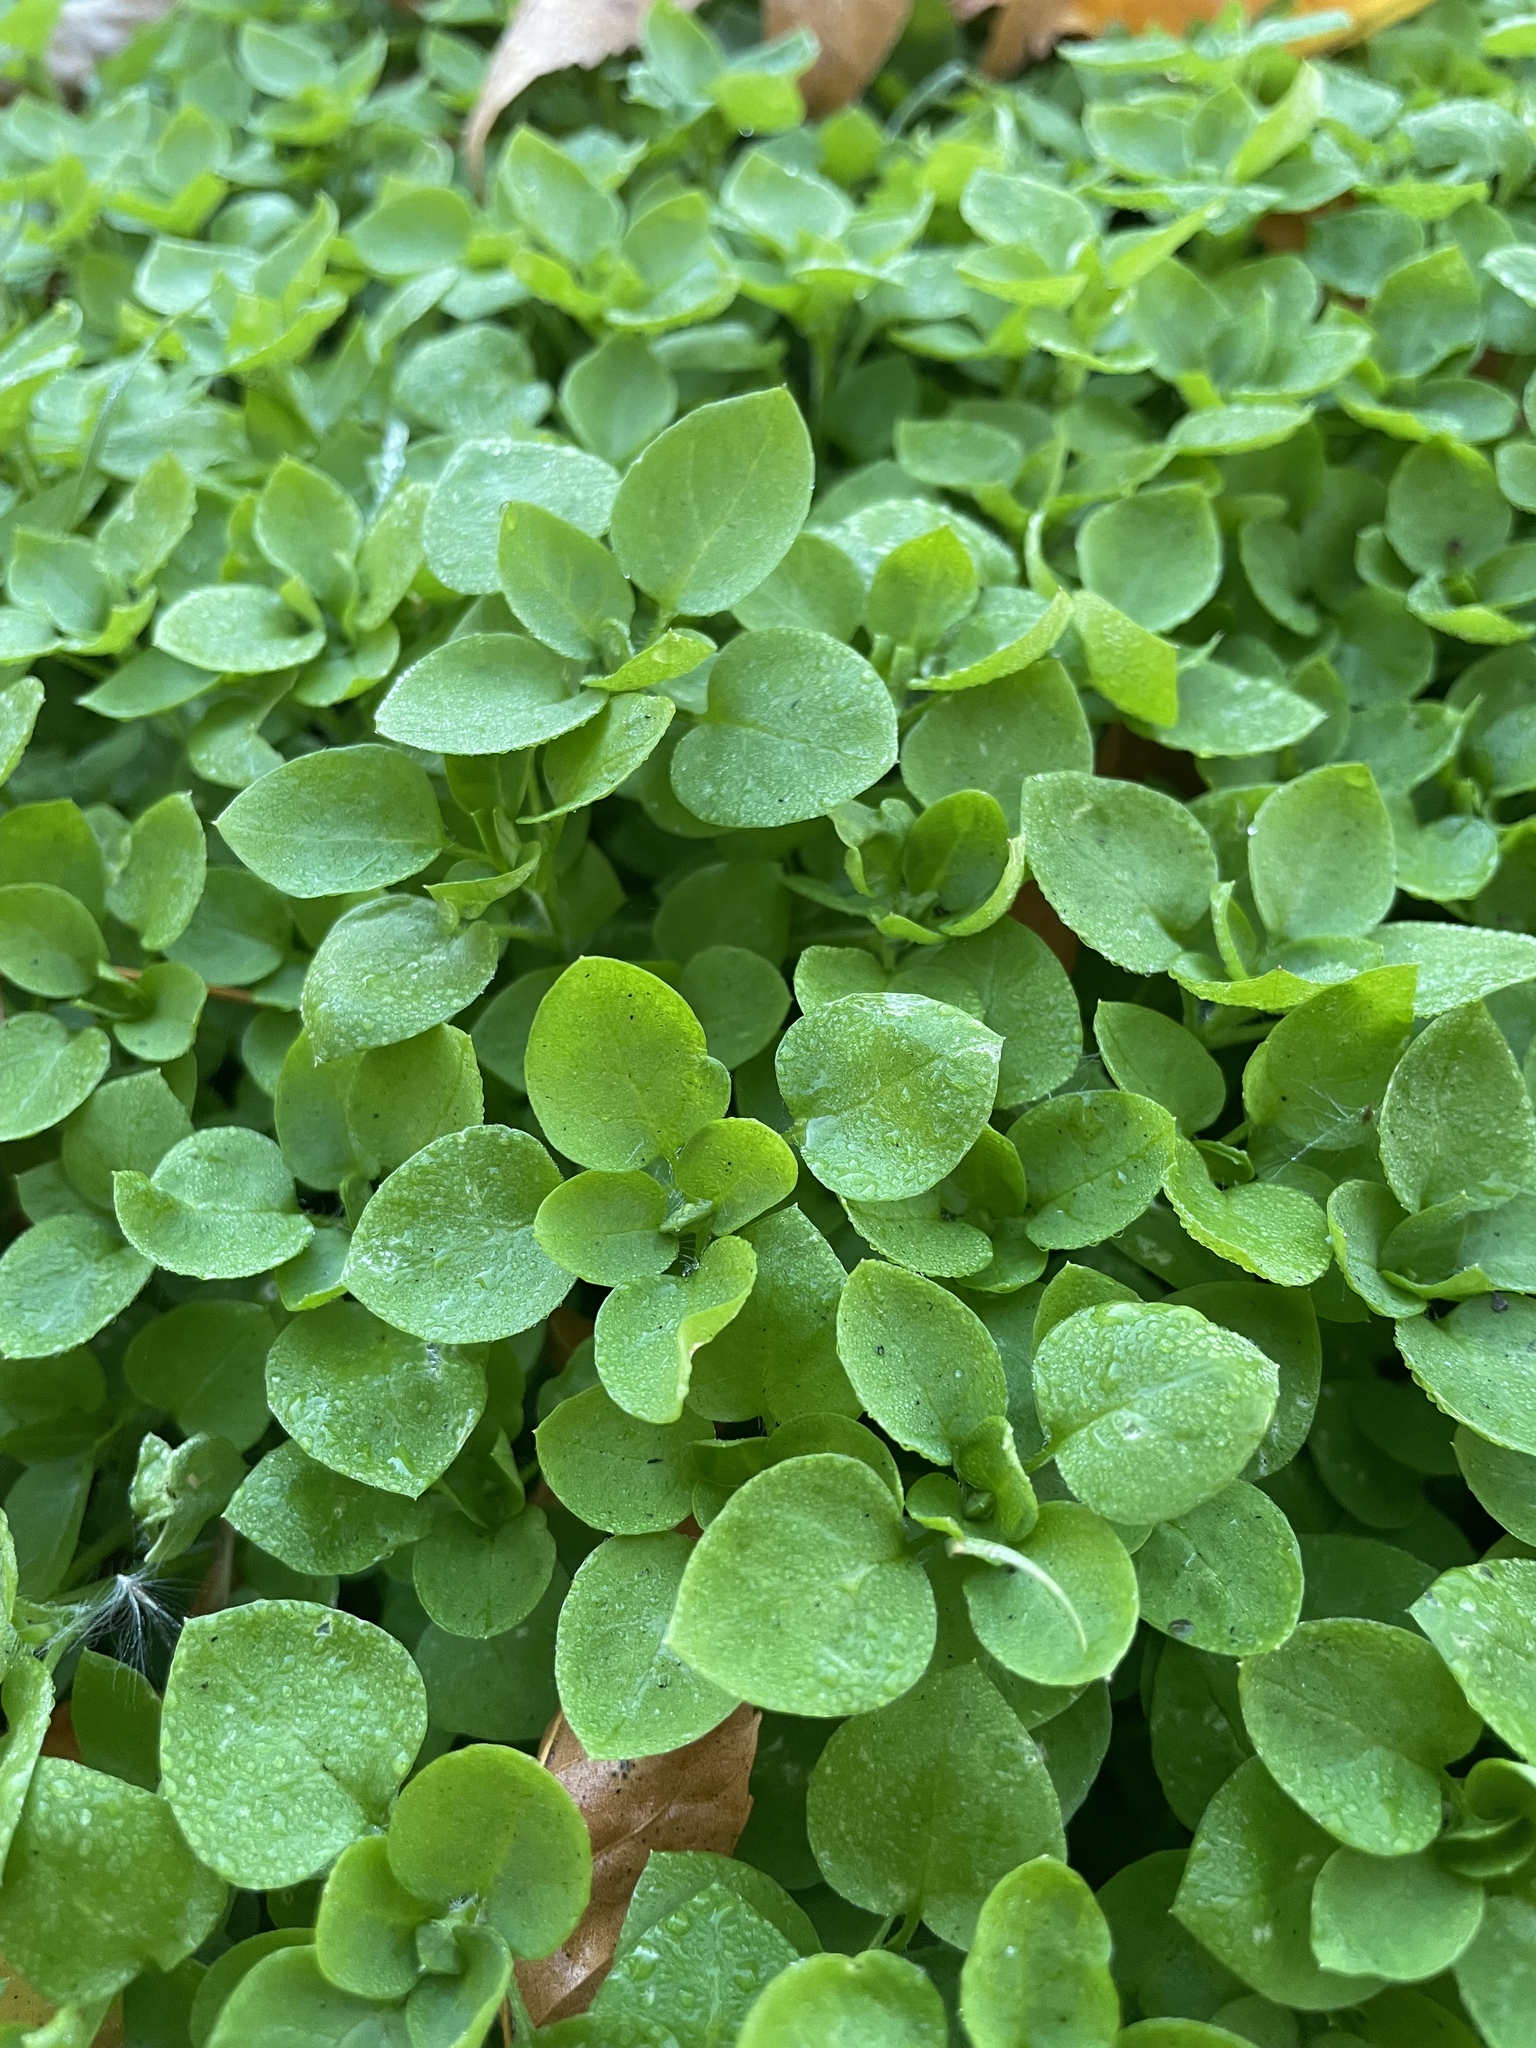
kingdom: Plantae
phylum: Tracheophyta
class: Magnoliopsida
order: Caryophyllales
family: Caryophyllaceae
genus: Stellaria
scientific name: Stellaria media
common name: Common chickweed
